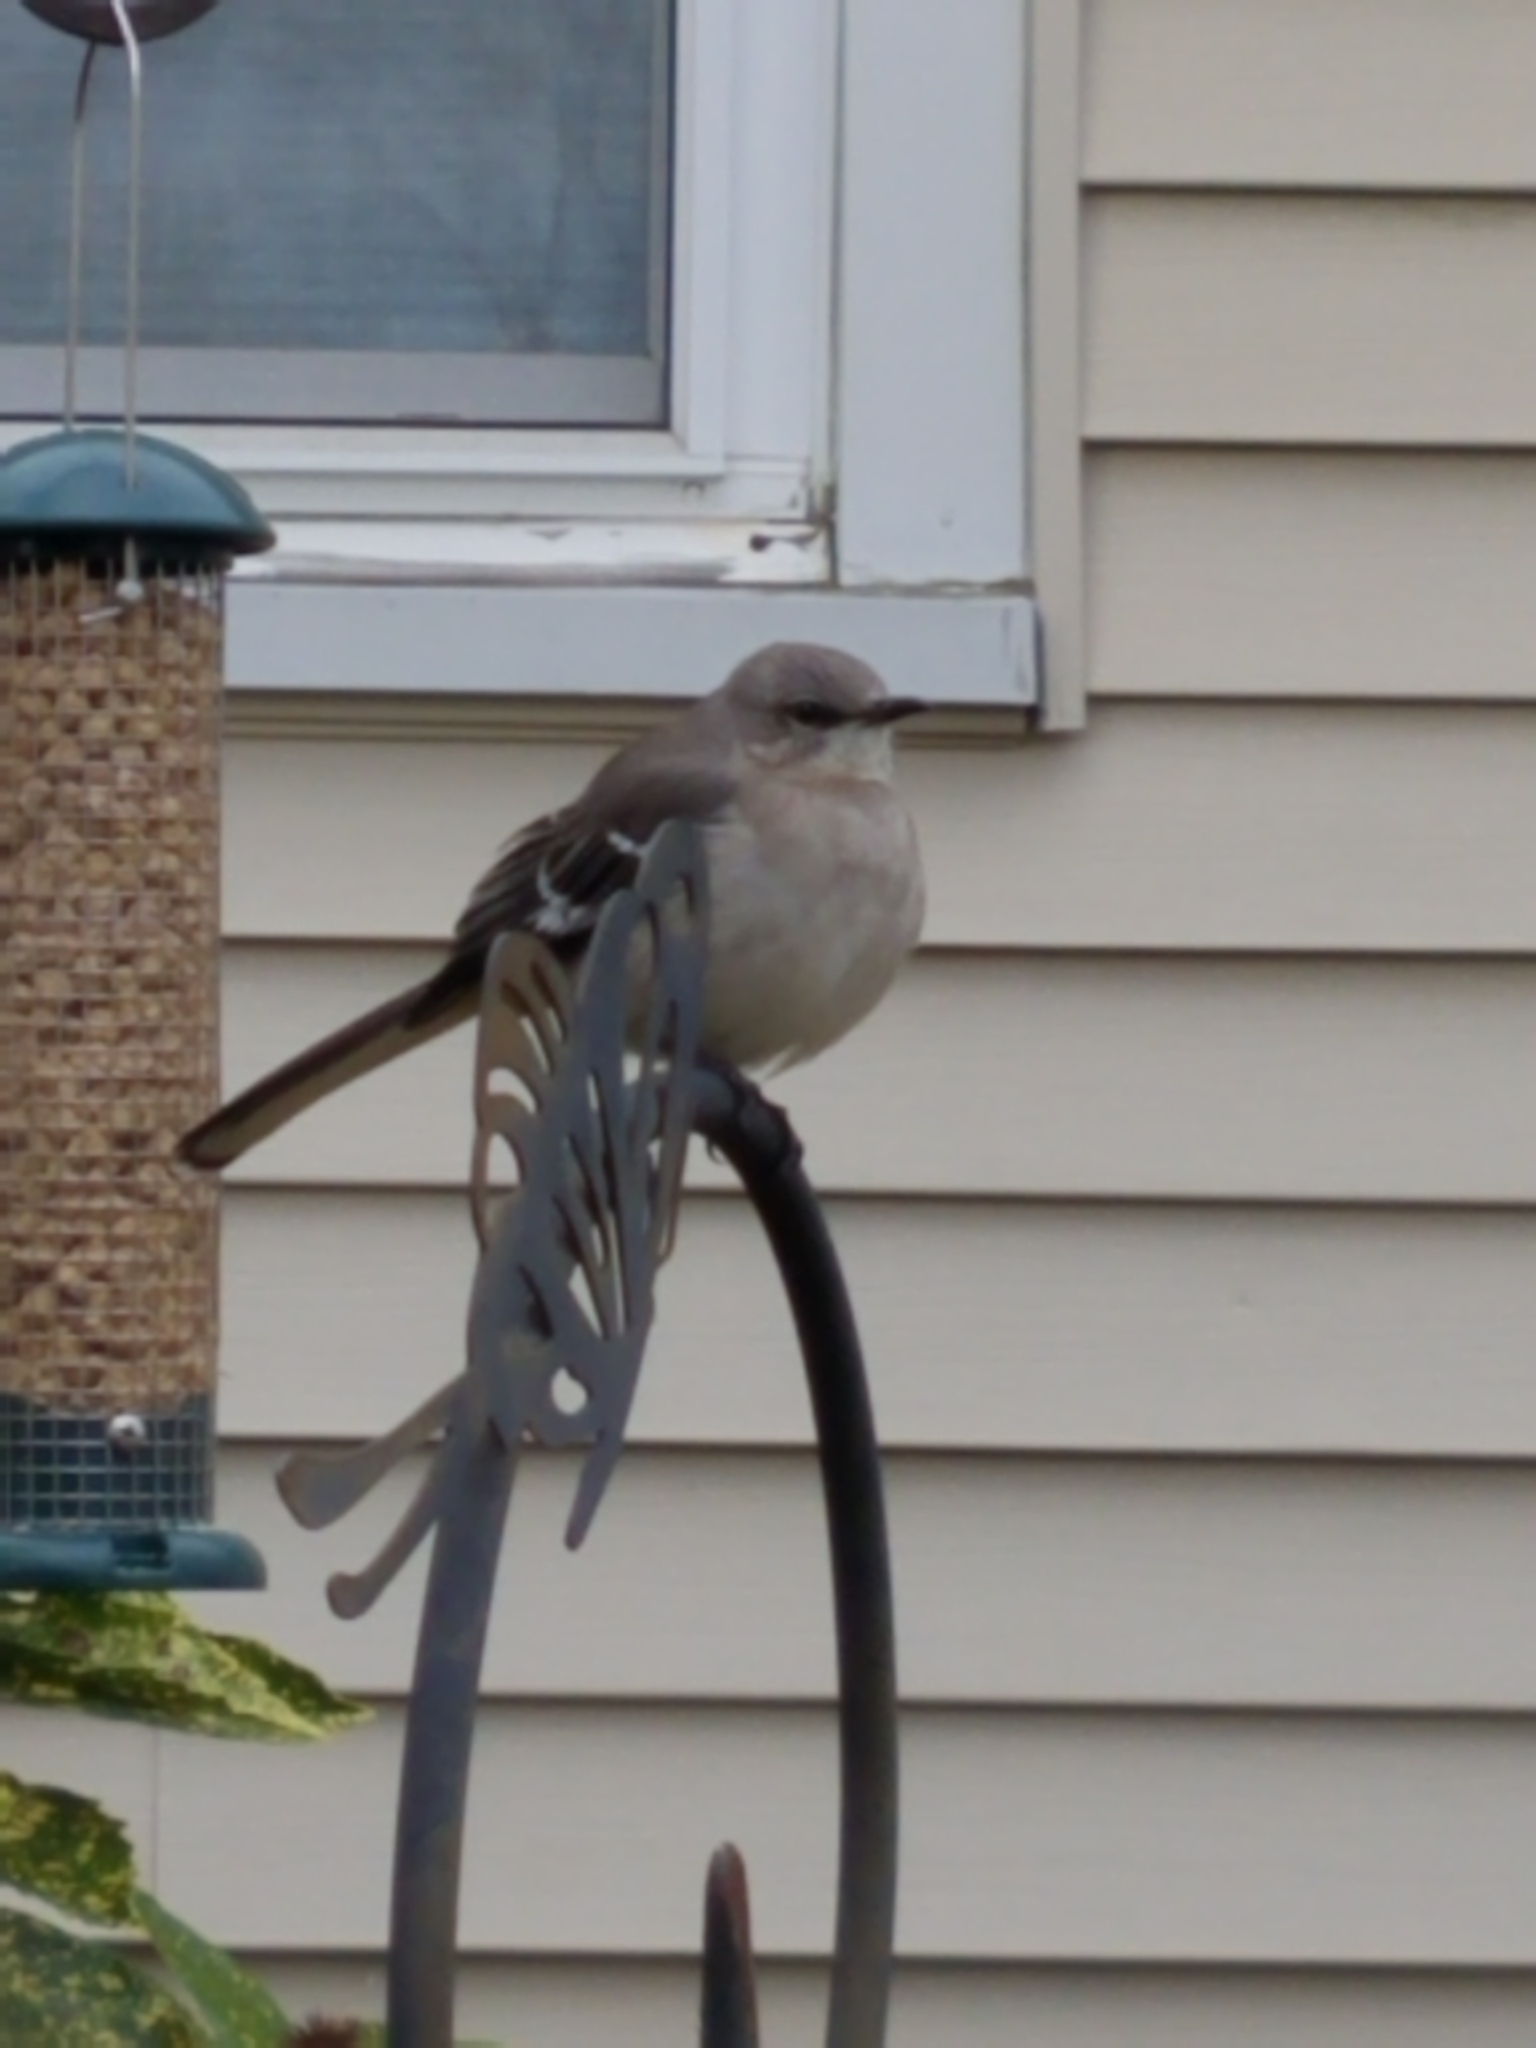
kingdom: Animalia
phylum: Chordata
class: Aves
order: Passeriformes
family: Mimidae
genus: Mimus
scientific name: Mimus polyglottos
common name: Northern mockingbird
